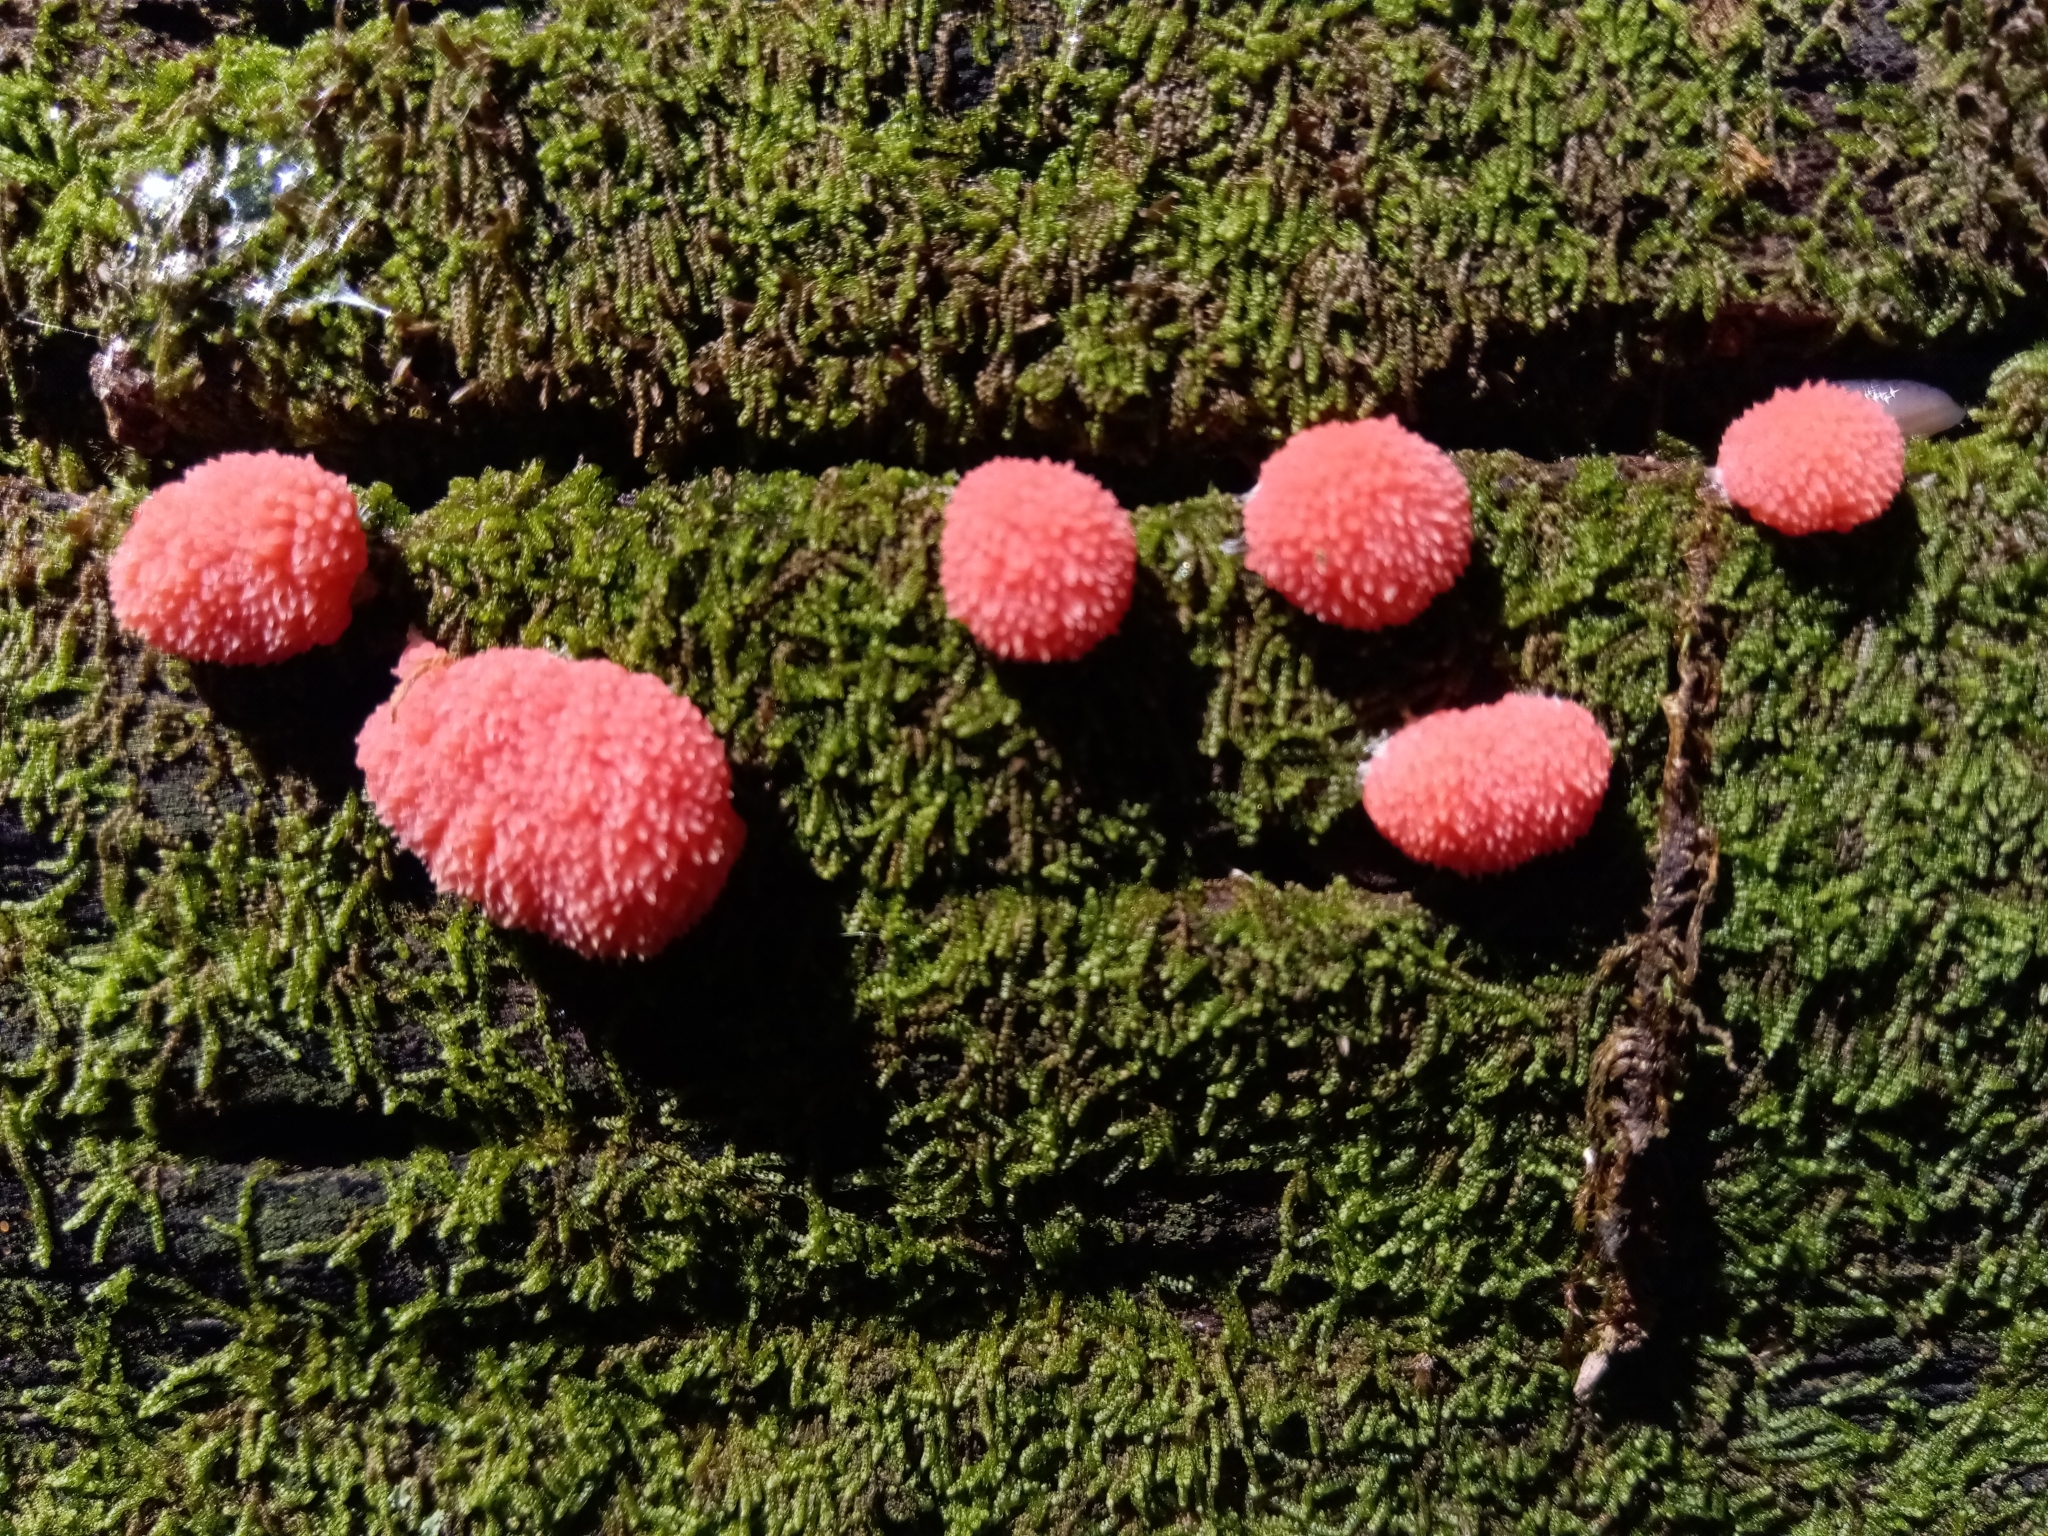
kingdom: Protozoa
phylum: Mycetozoa
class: Myxomycetes
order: Cribrariales
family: Tubiferaceae
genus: Tubifera
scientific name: Tubifera ferruginosa
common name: Red raspberry slime mold
